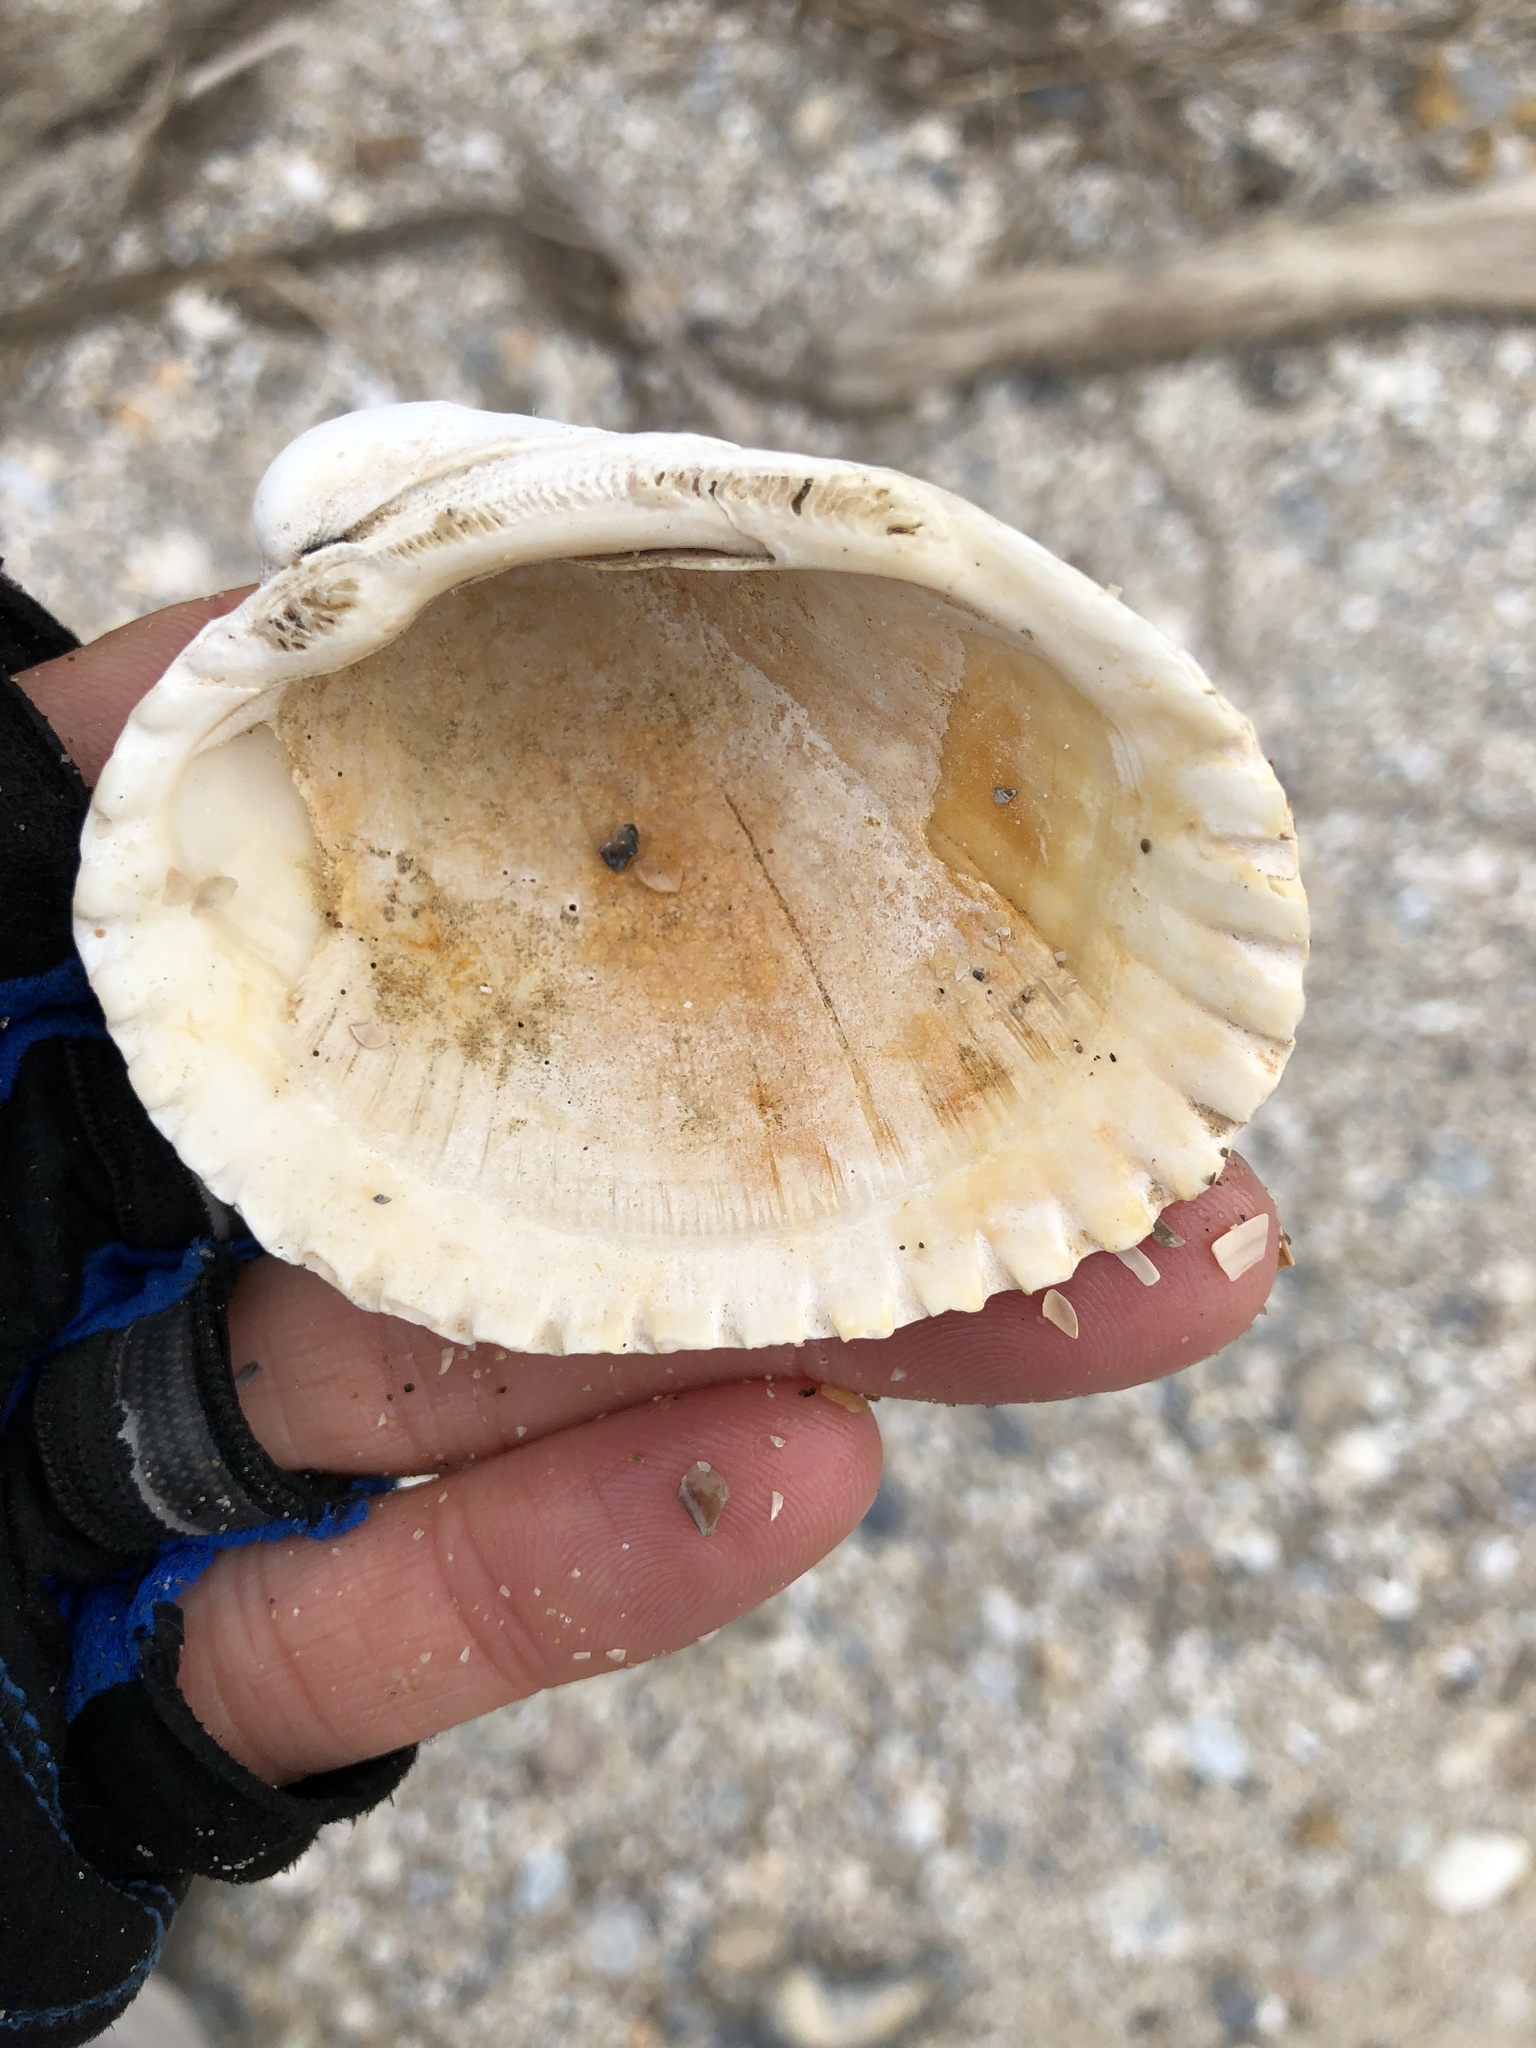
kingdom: Animalia
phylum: Mollusca
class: Bivalvia
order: Arcida
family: Arcidae
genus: Lunarca
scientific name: Lunarca ovalis
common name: Blood ark
